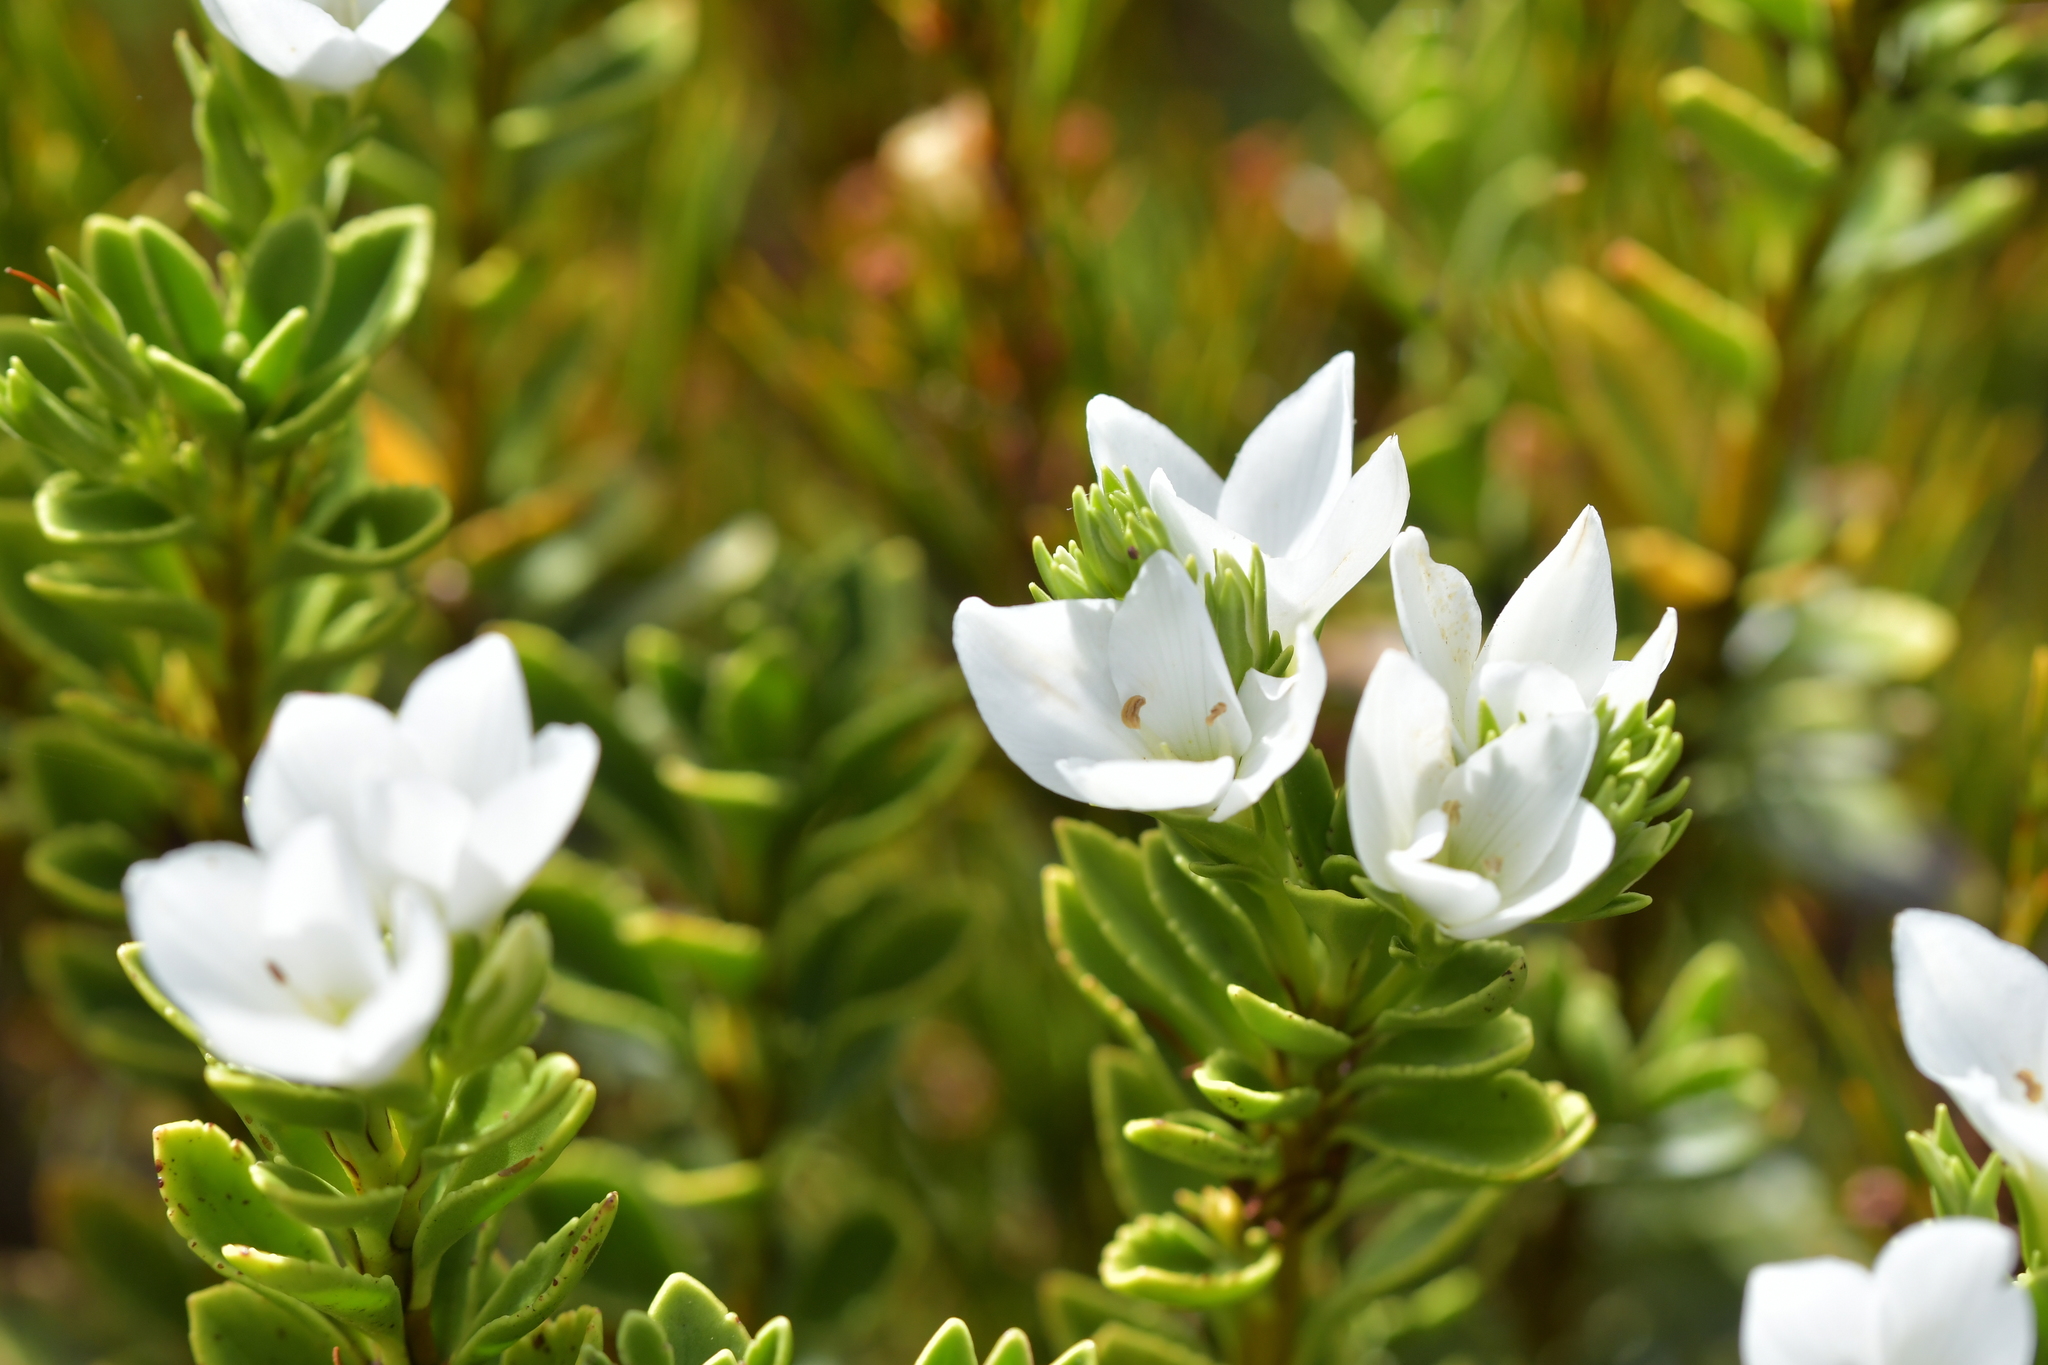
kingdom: Plantae
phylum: Tracheophyta
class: Magnoliopsida
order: Lamiales
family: Plantaginaceae
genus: Veronica
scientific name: Veronica macrantha
